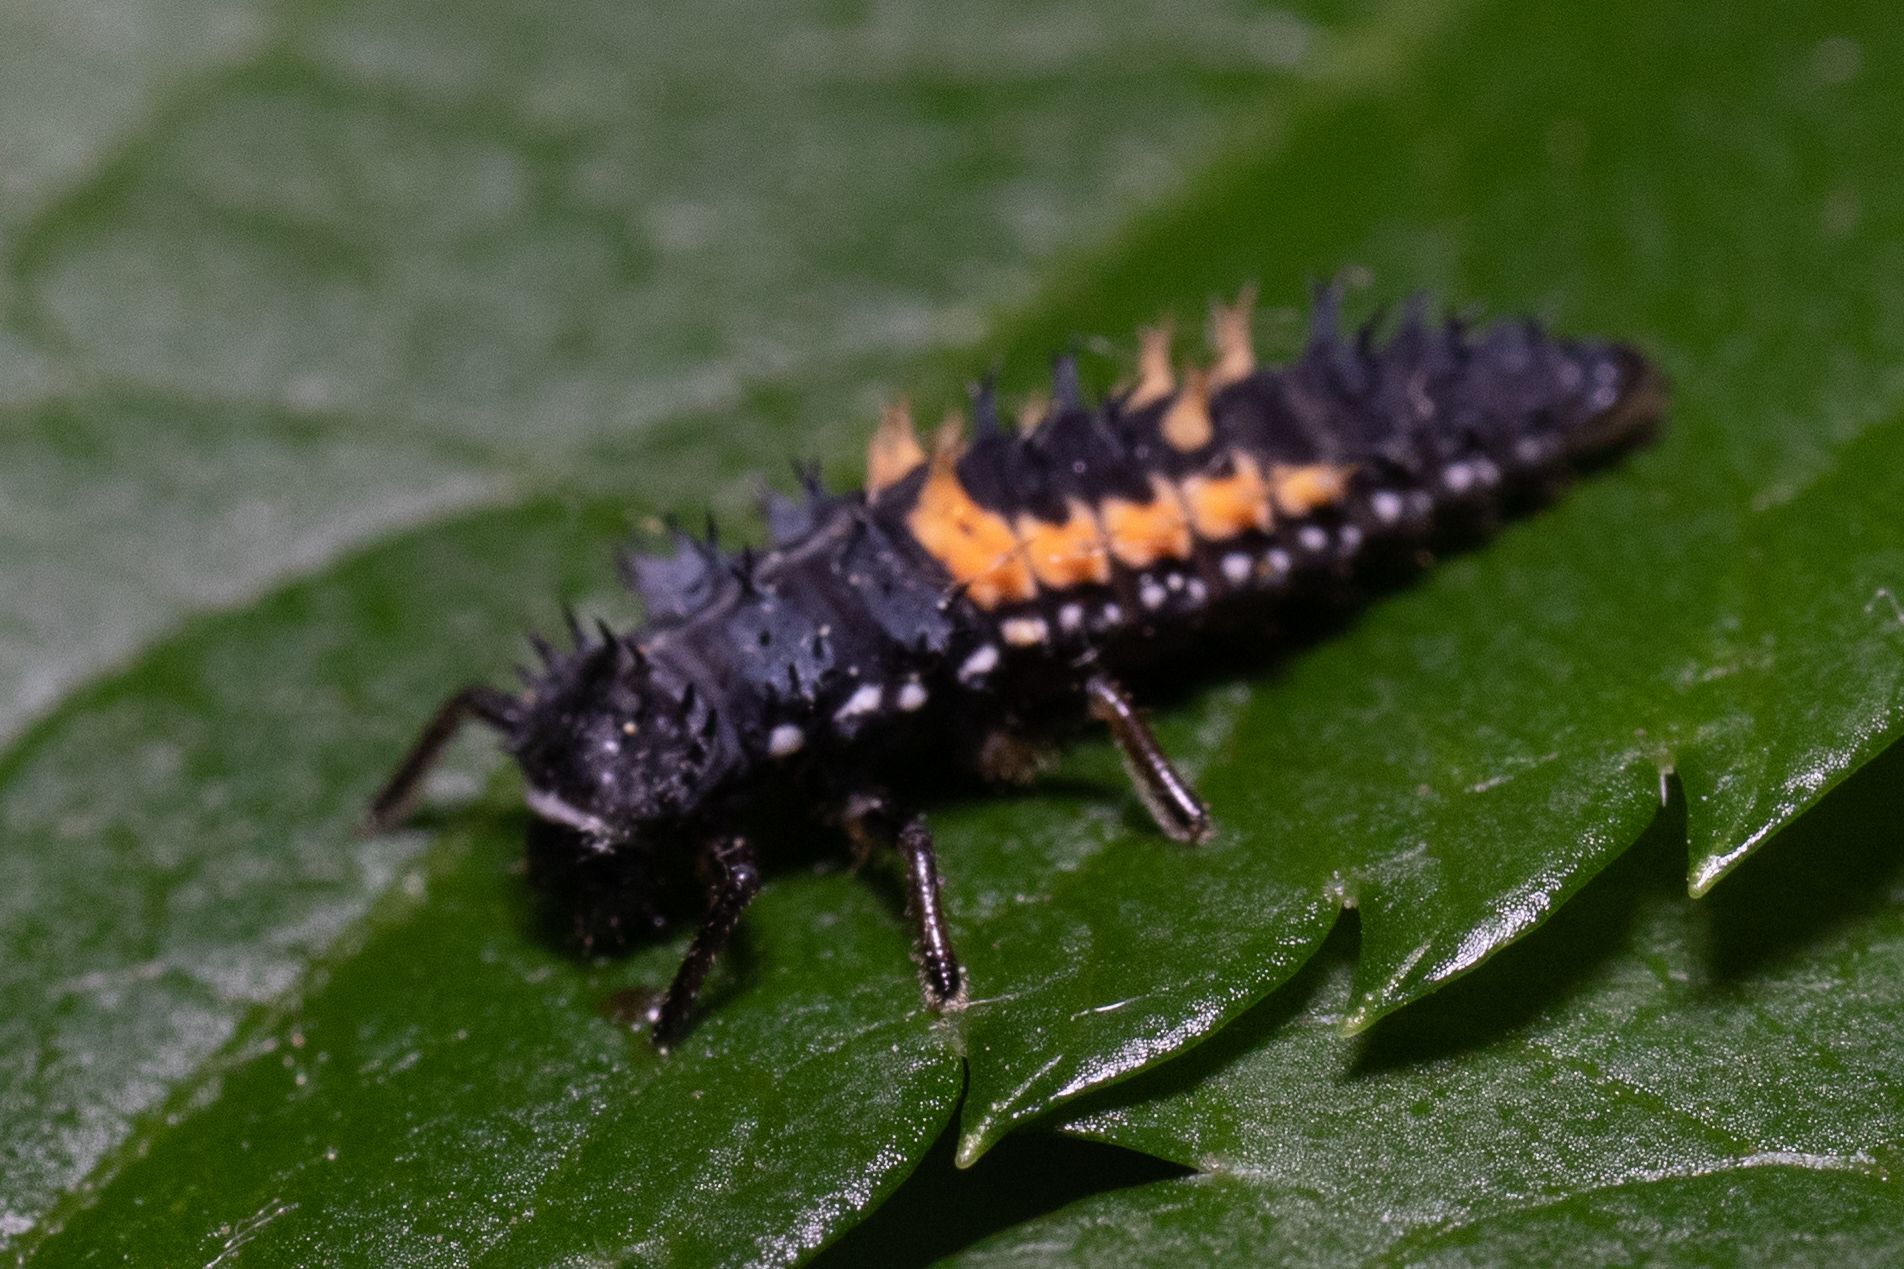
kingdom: Animalia
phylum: Arthropoda
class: Insecta
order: Coleoptera
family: Coccinellidae
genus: Harmonia
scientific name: Harmonia axyridis
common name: Harlequin ladybird
